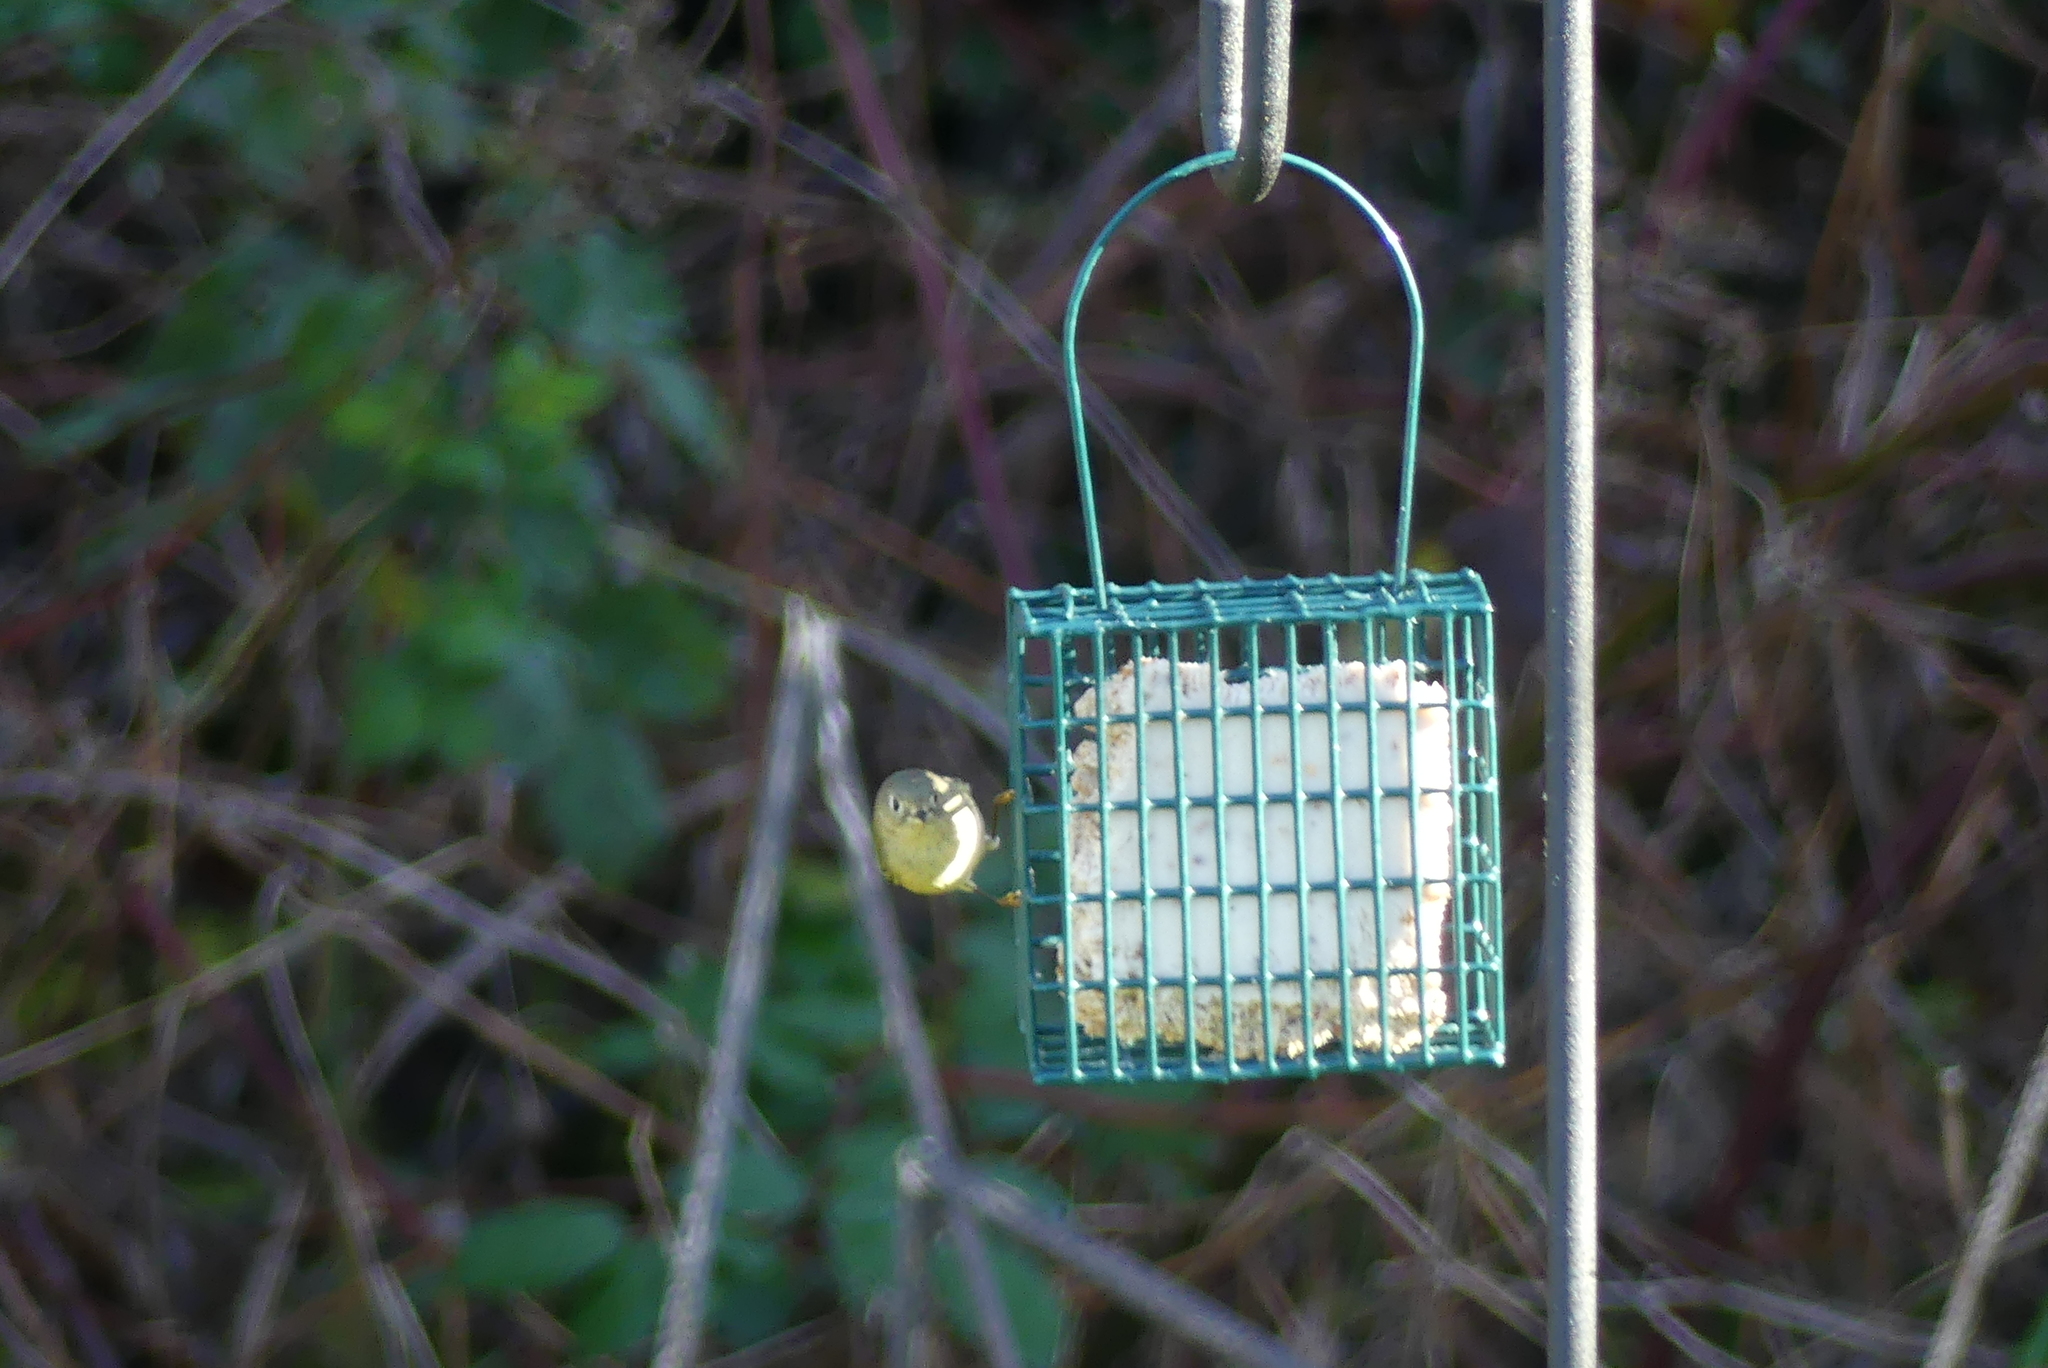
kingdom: Animalia
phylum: Chordata
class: Aves
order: Passeriformes
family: Regulidae
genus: Regulus
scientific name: Regulus calendula
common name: Ruby-crowned kinglet
